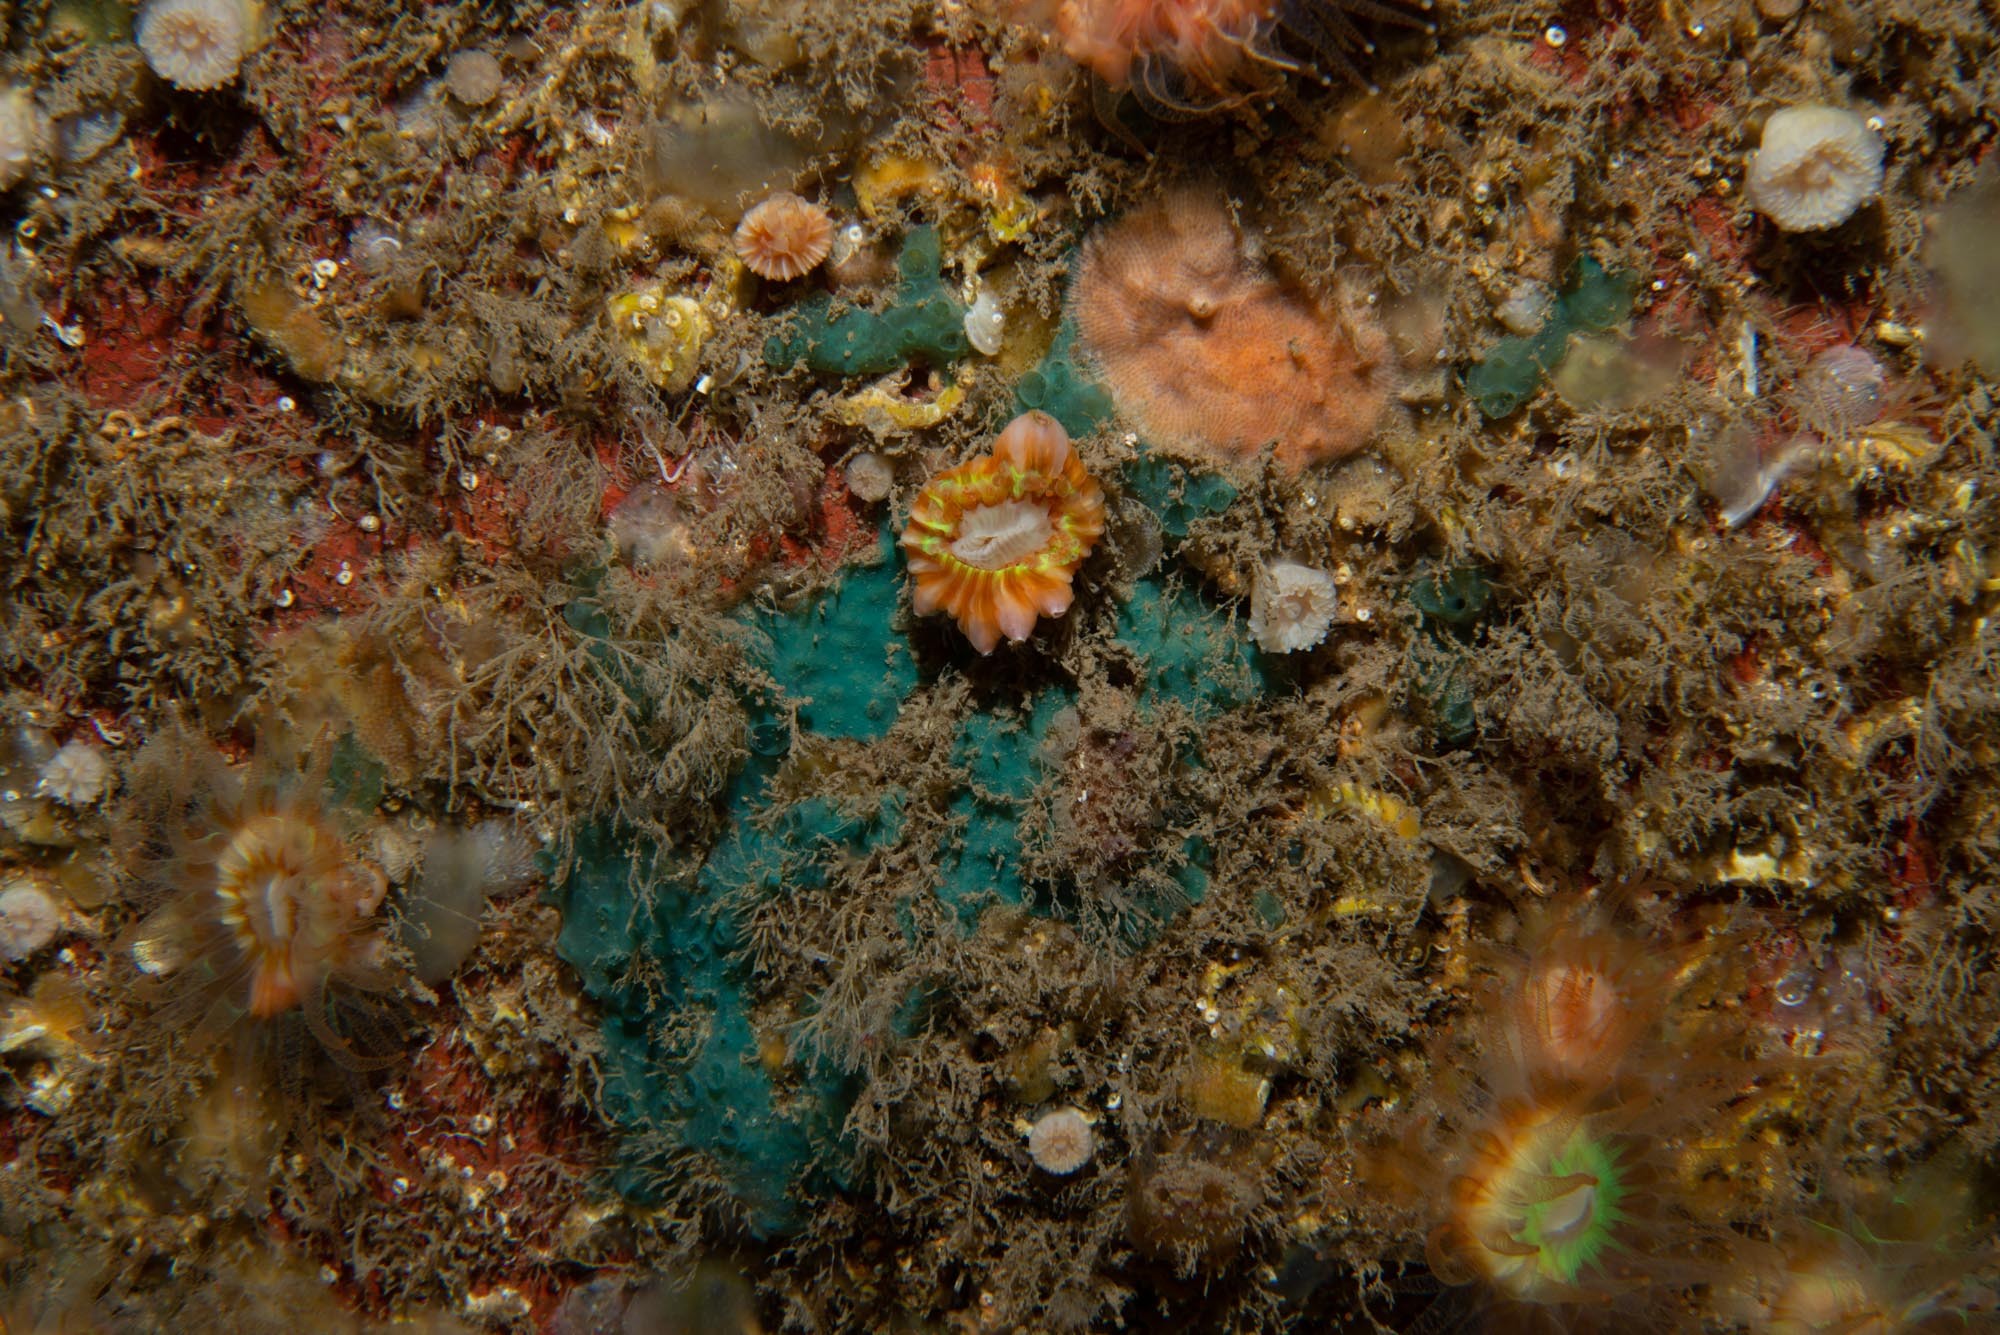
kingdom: Animalia
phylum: Cnidaria
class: Anthozoa
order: Scleractinia
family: Caryophylliidae
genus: Caryophyllia
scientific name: Caryophyllia inornata
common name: Circular cupcoral
